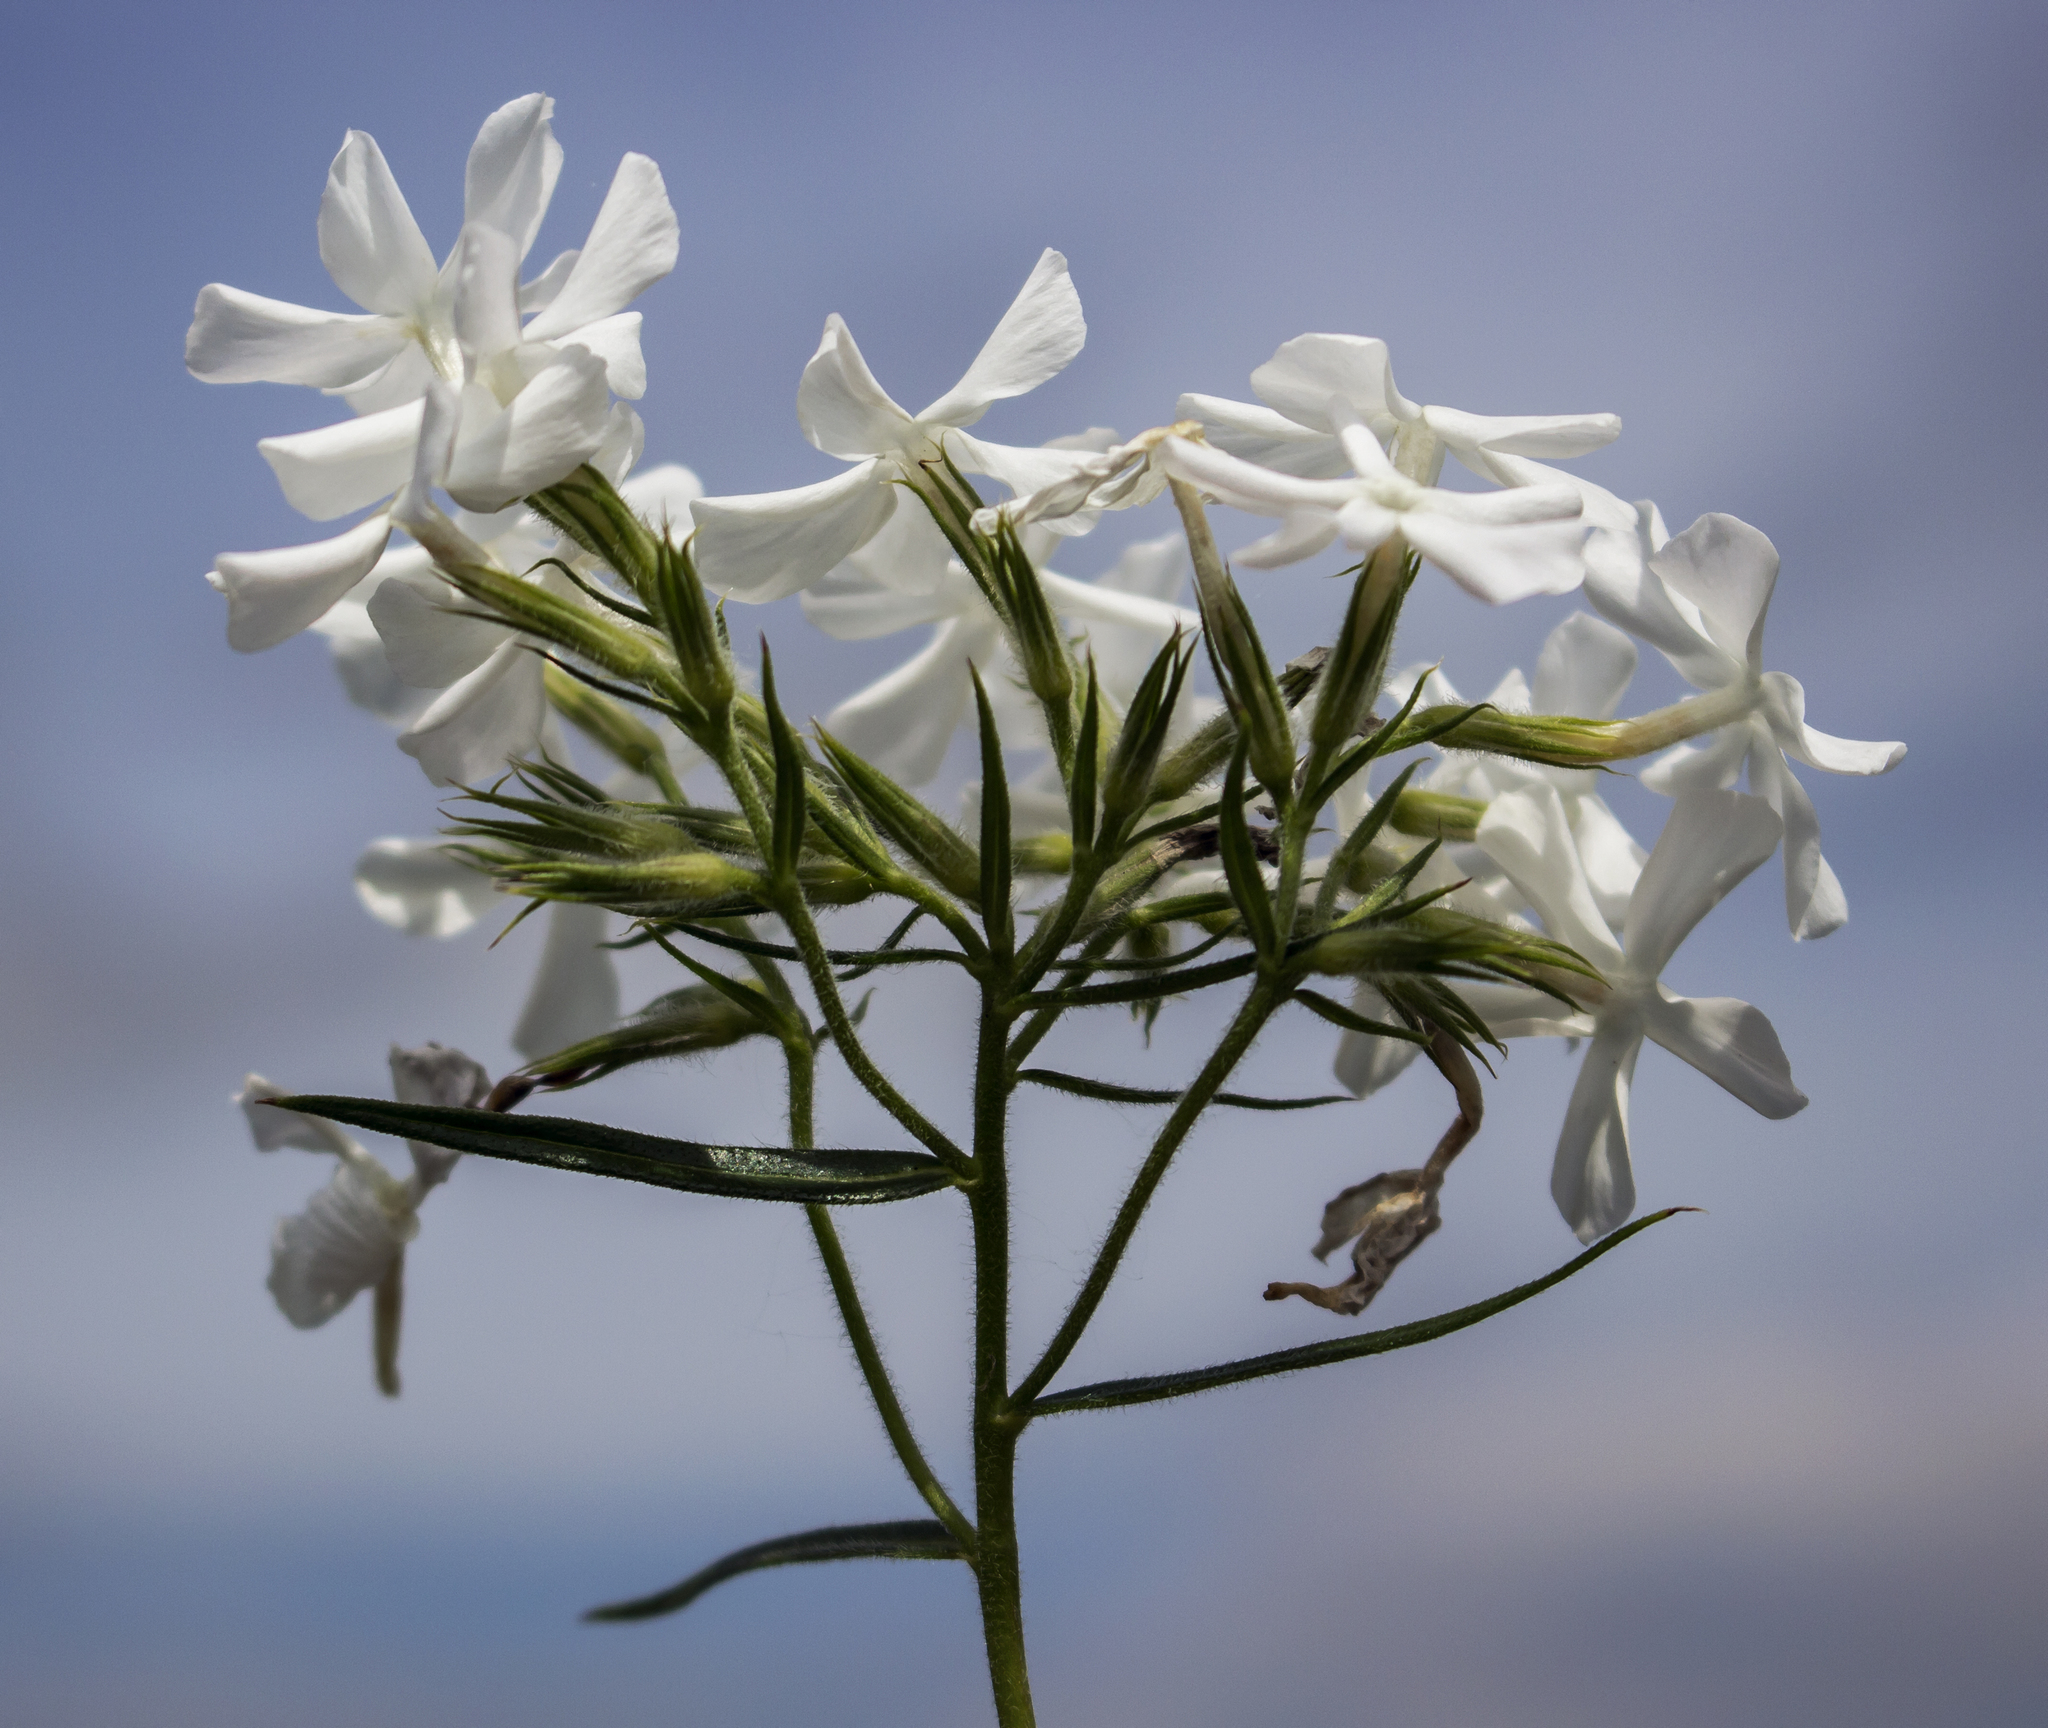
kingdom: Plantae
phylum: Tracheophyta
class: Magnoliopsida
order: Ericales
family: Polemoniaceae
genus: Phlox
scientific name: Phlox pilosa
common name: Prairie phlox
